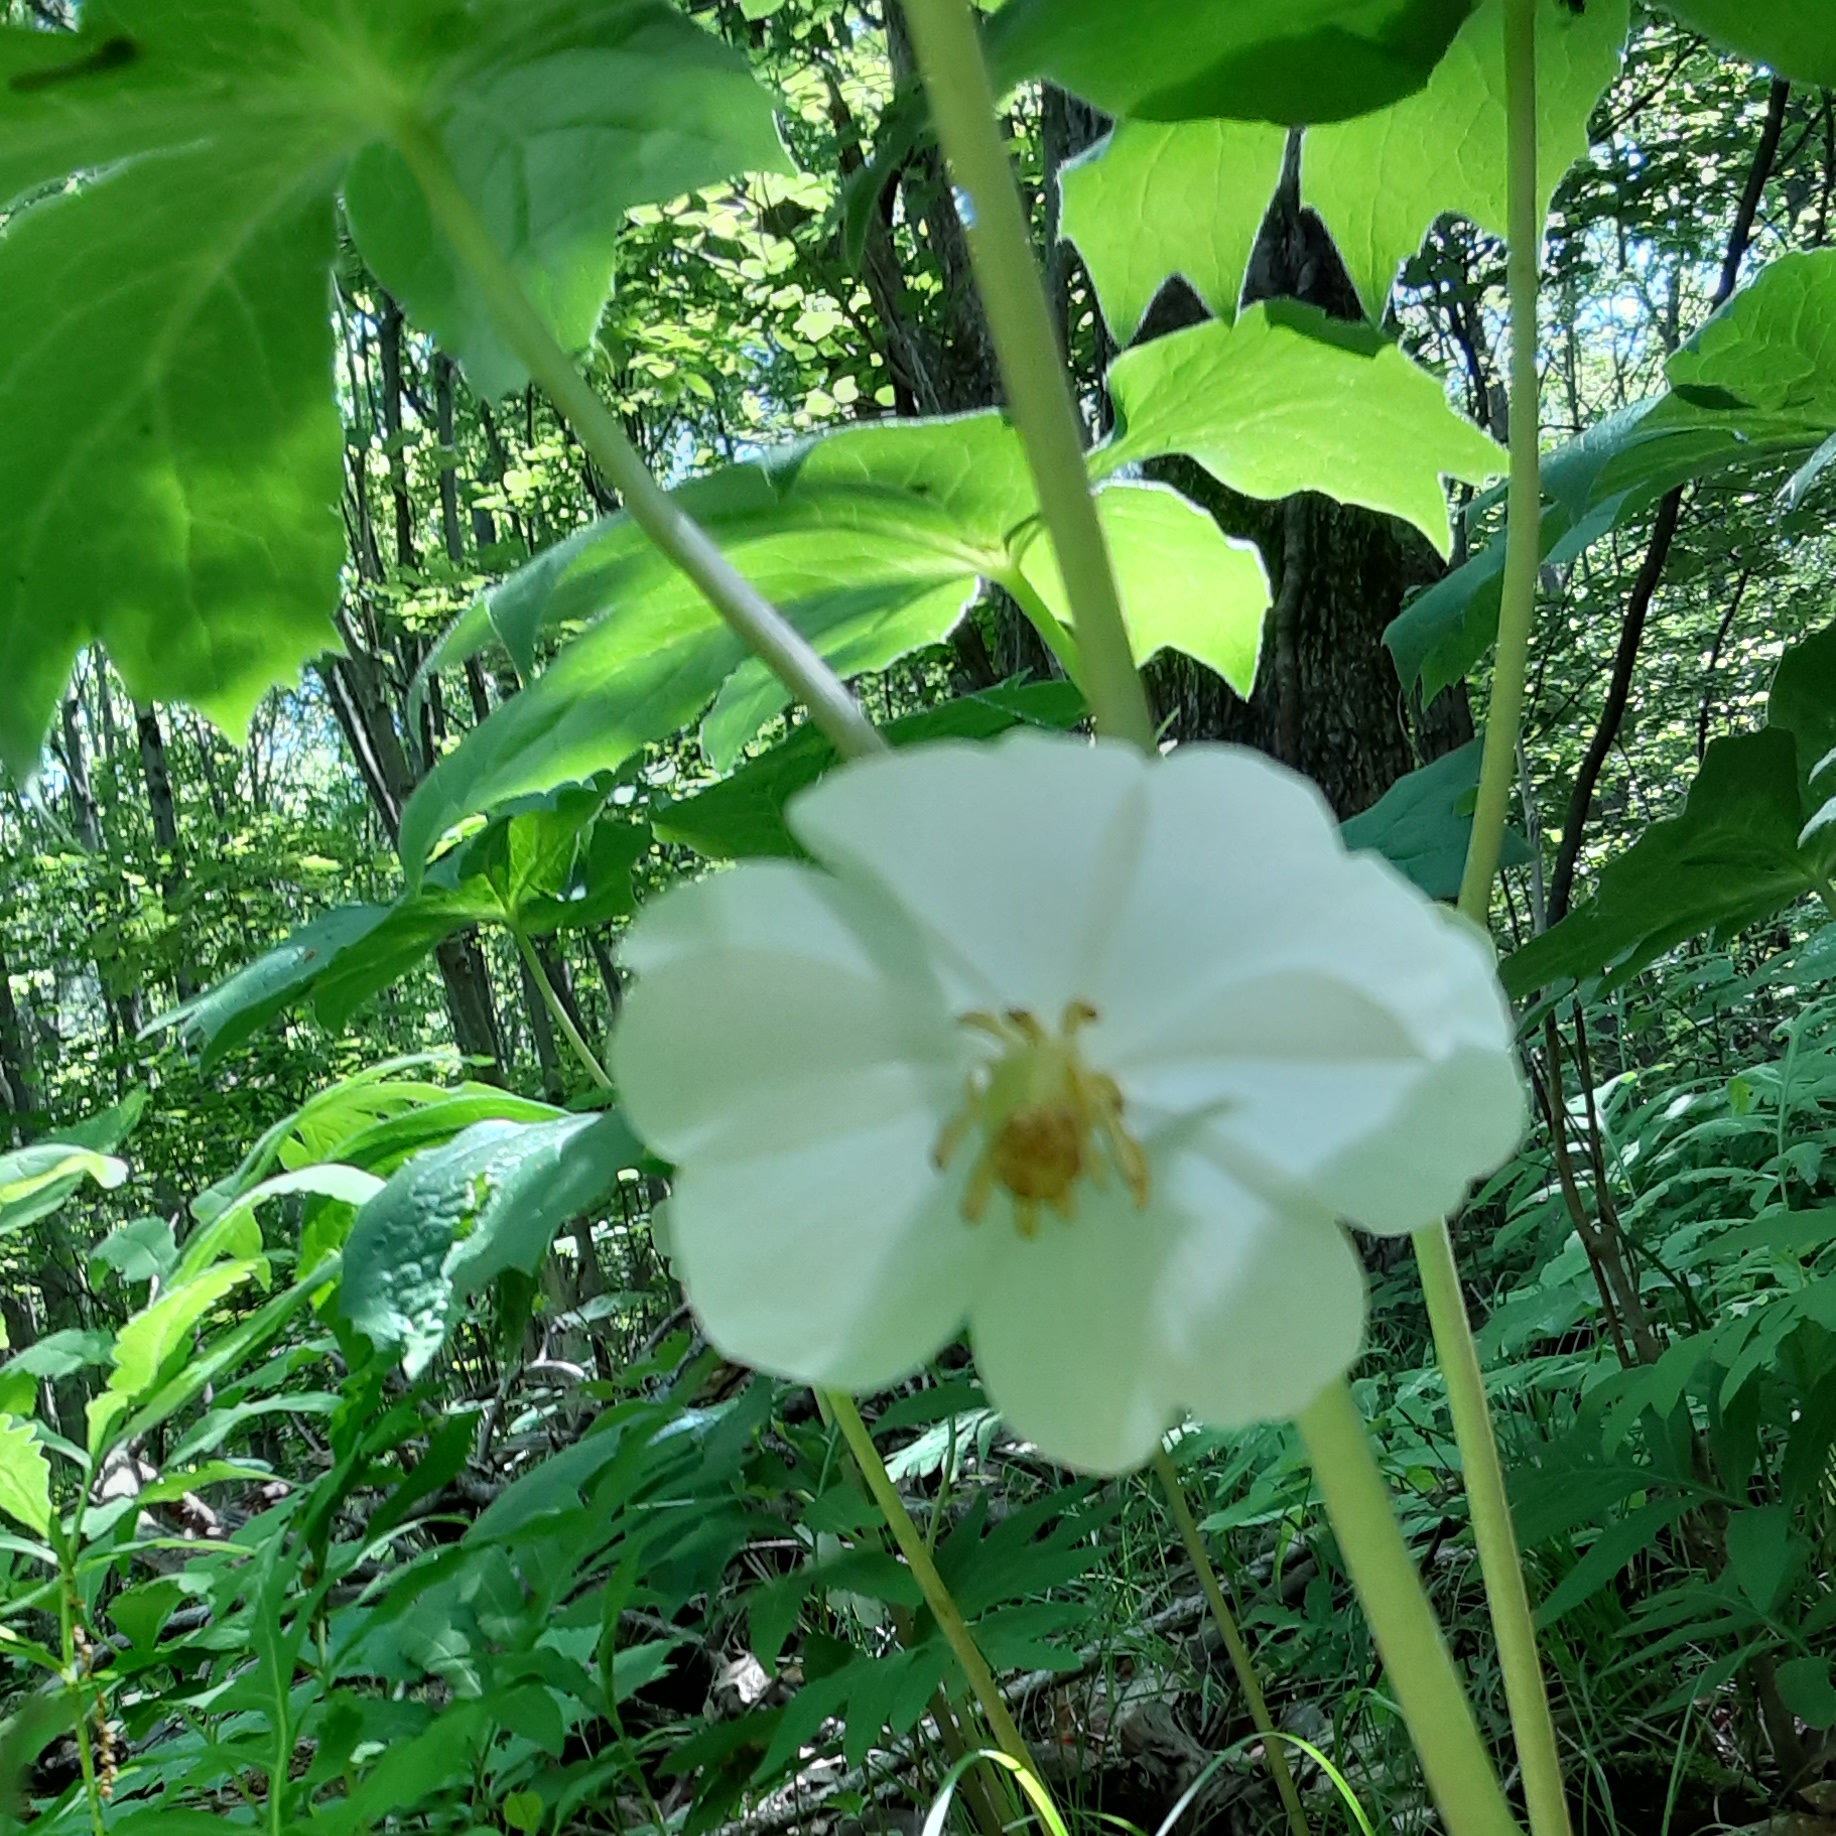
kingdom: Plantae
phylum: Tracheophyta
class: Magnoliopsida
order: Ranunculales
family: Berberidaceae
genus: Podophyllum
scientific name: Podophyllum peltatum
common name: Wild mandrake
